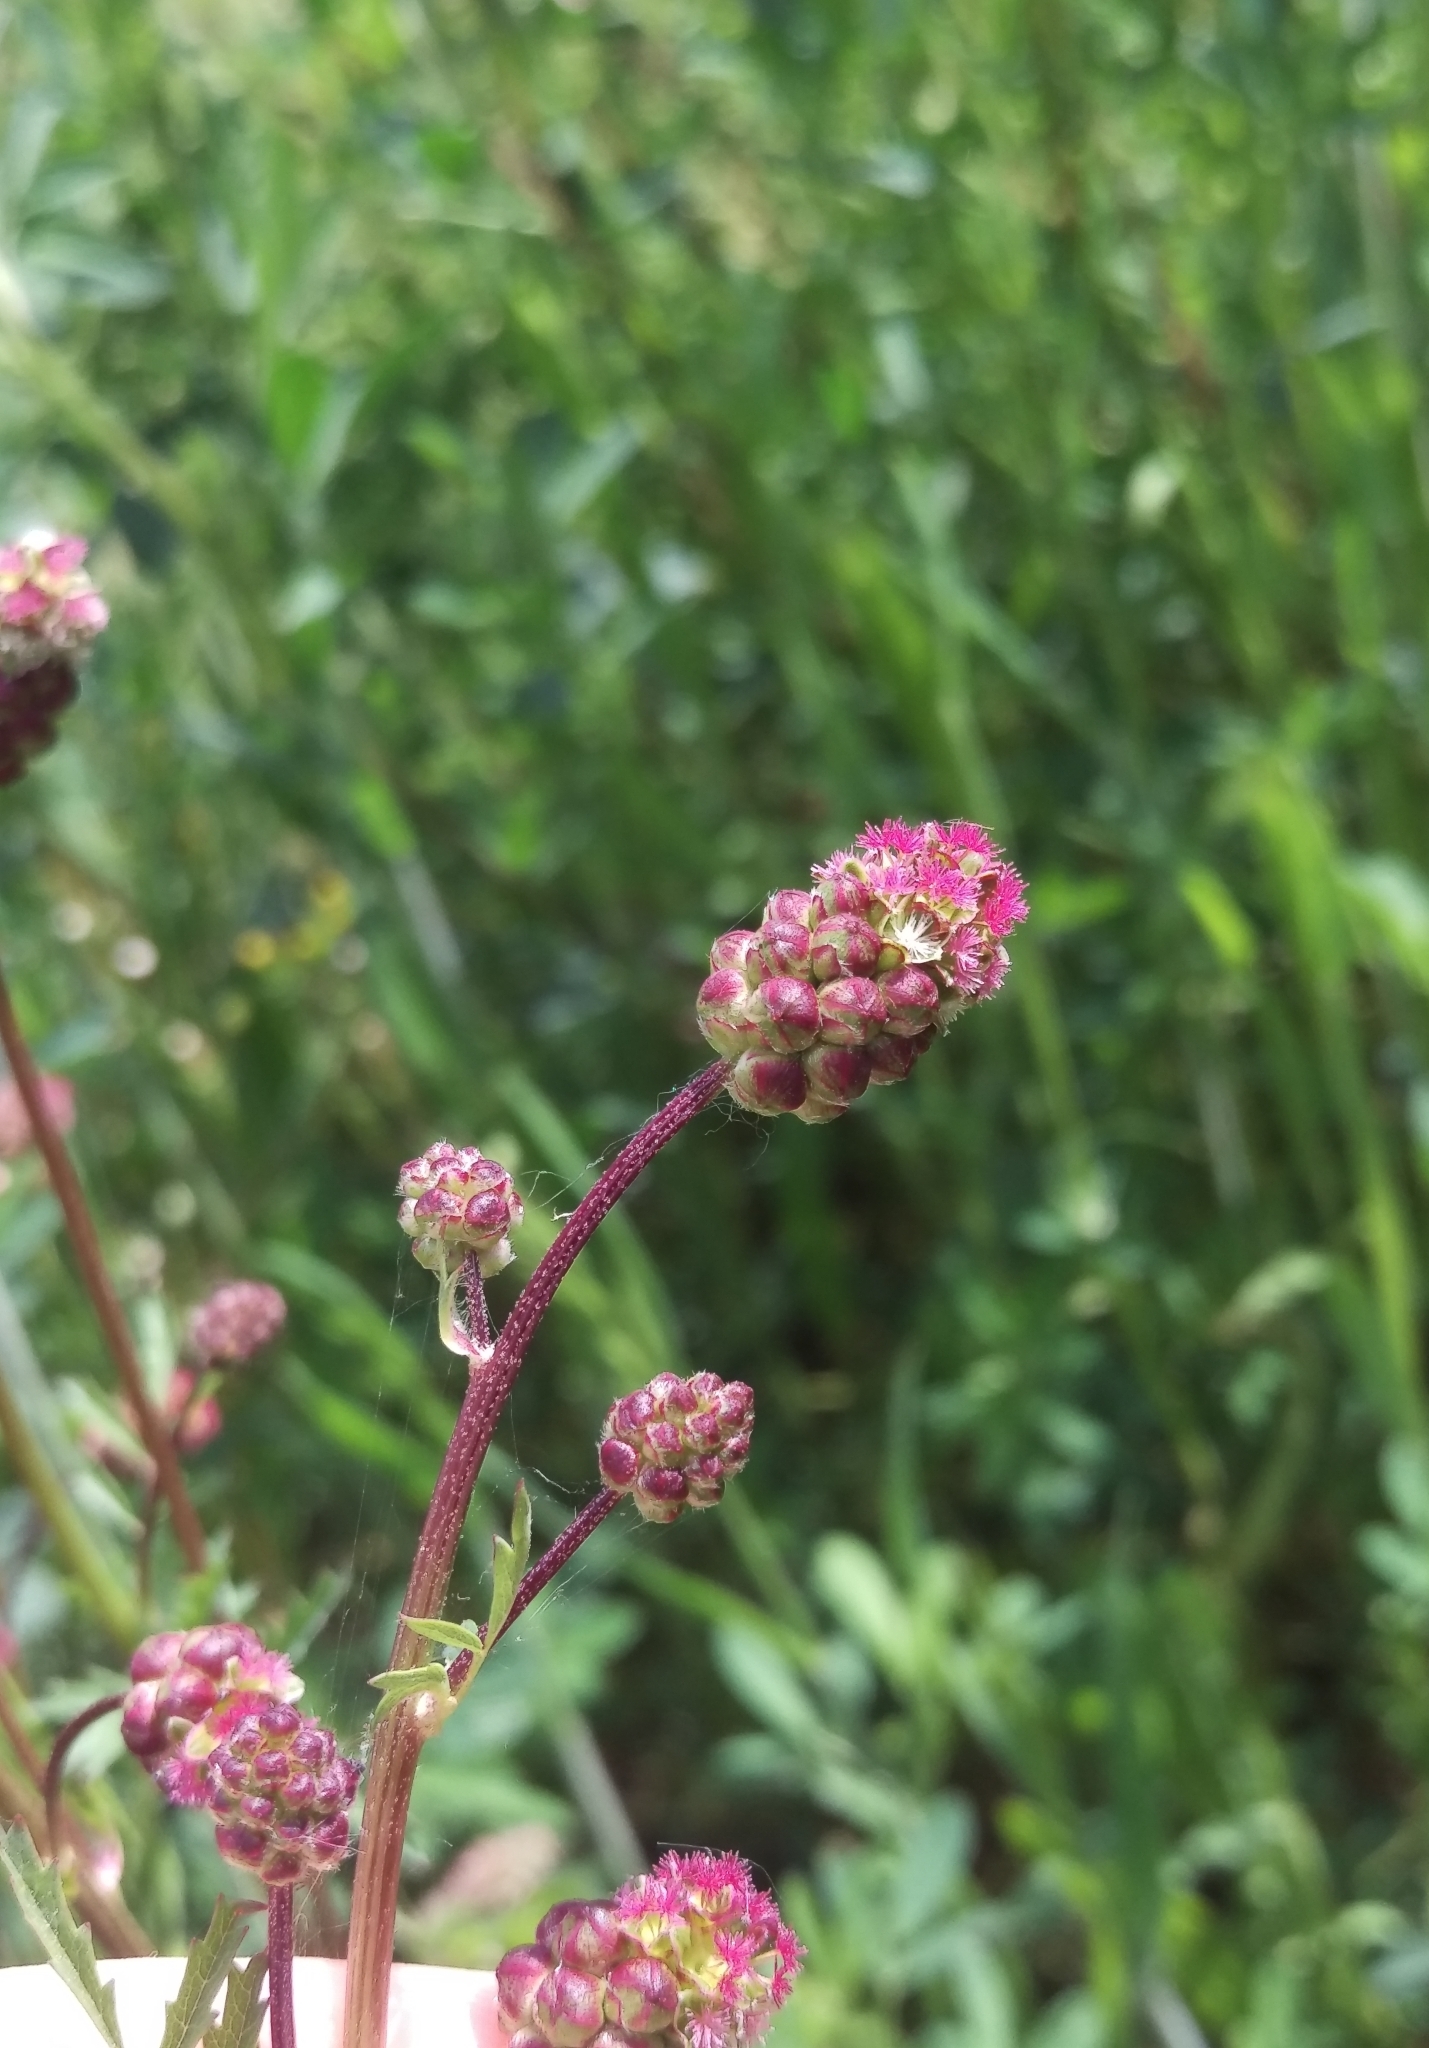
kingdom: Plantae
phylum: Tracheophyta
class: Magnoliopsida
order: Rosales
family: Rosaceae
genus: Poterium
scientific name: Poterium sanguisorba
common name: Salad burnet
